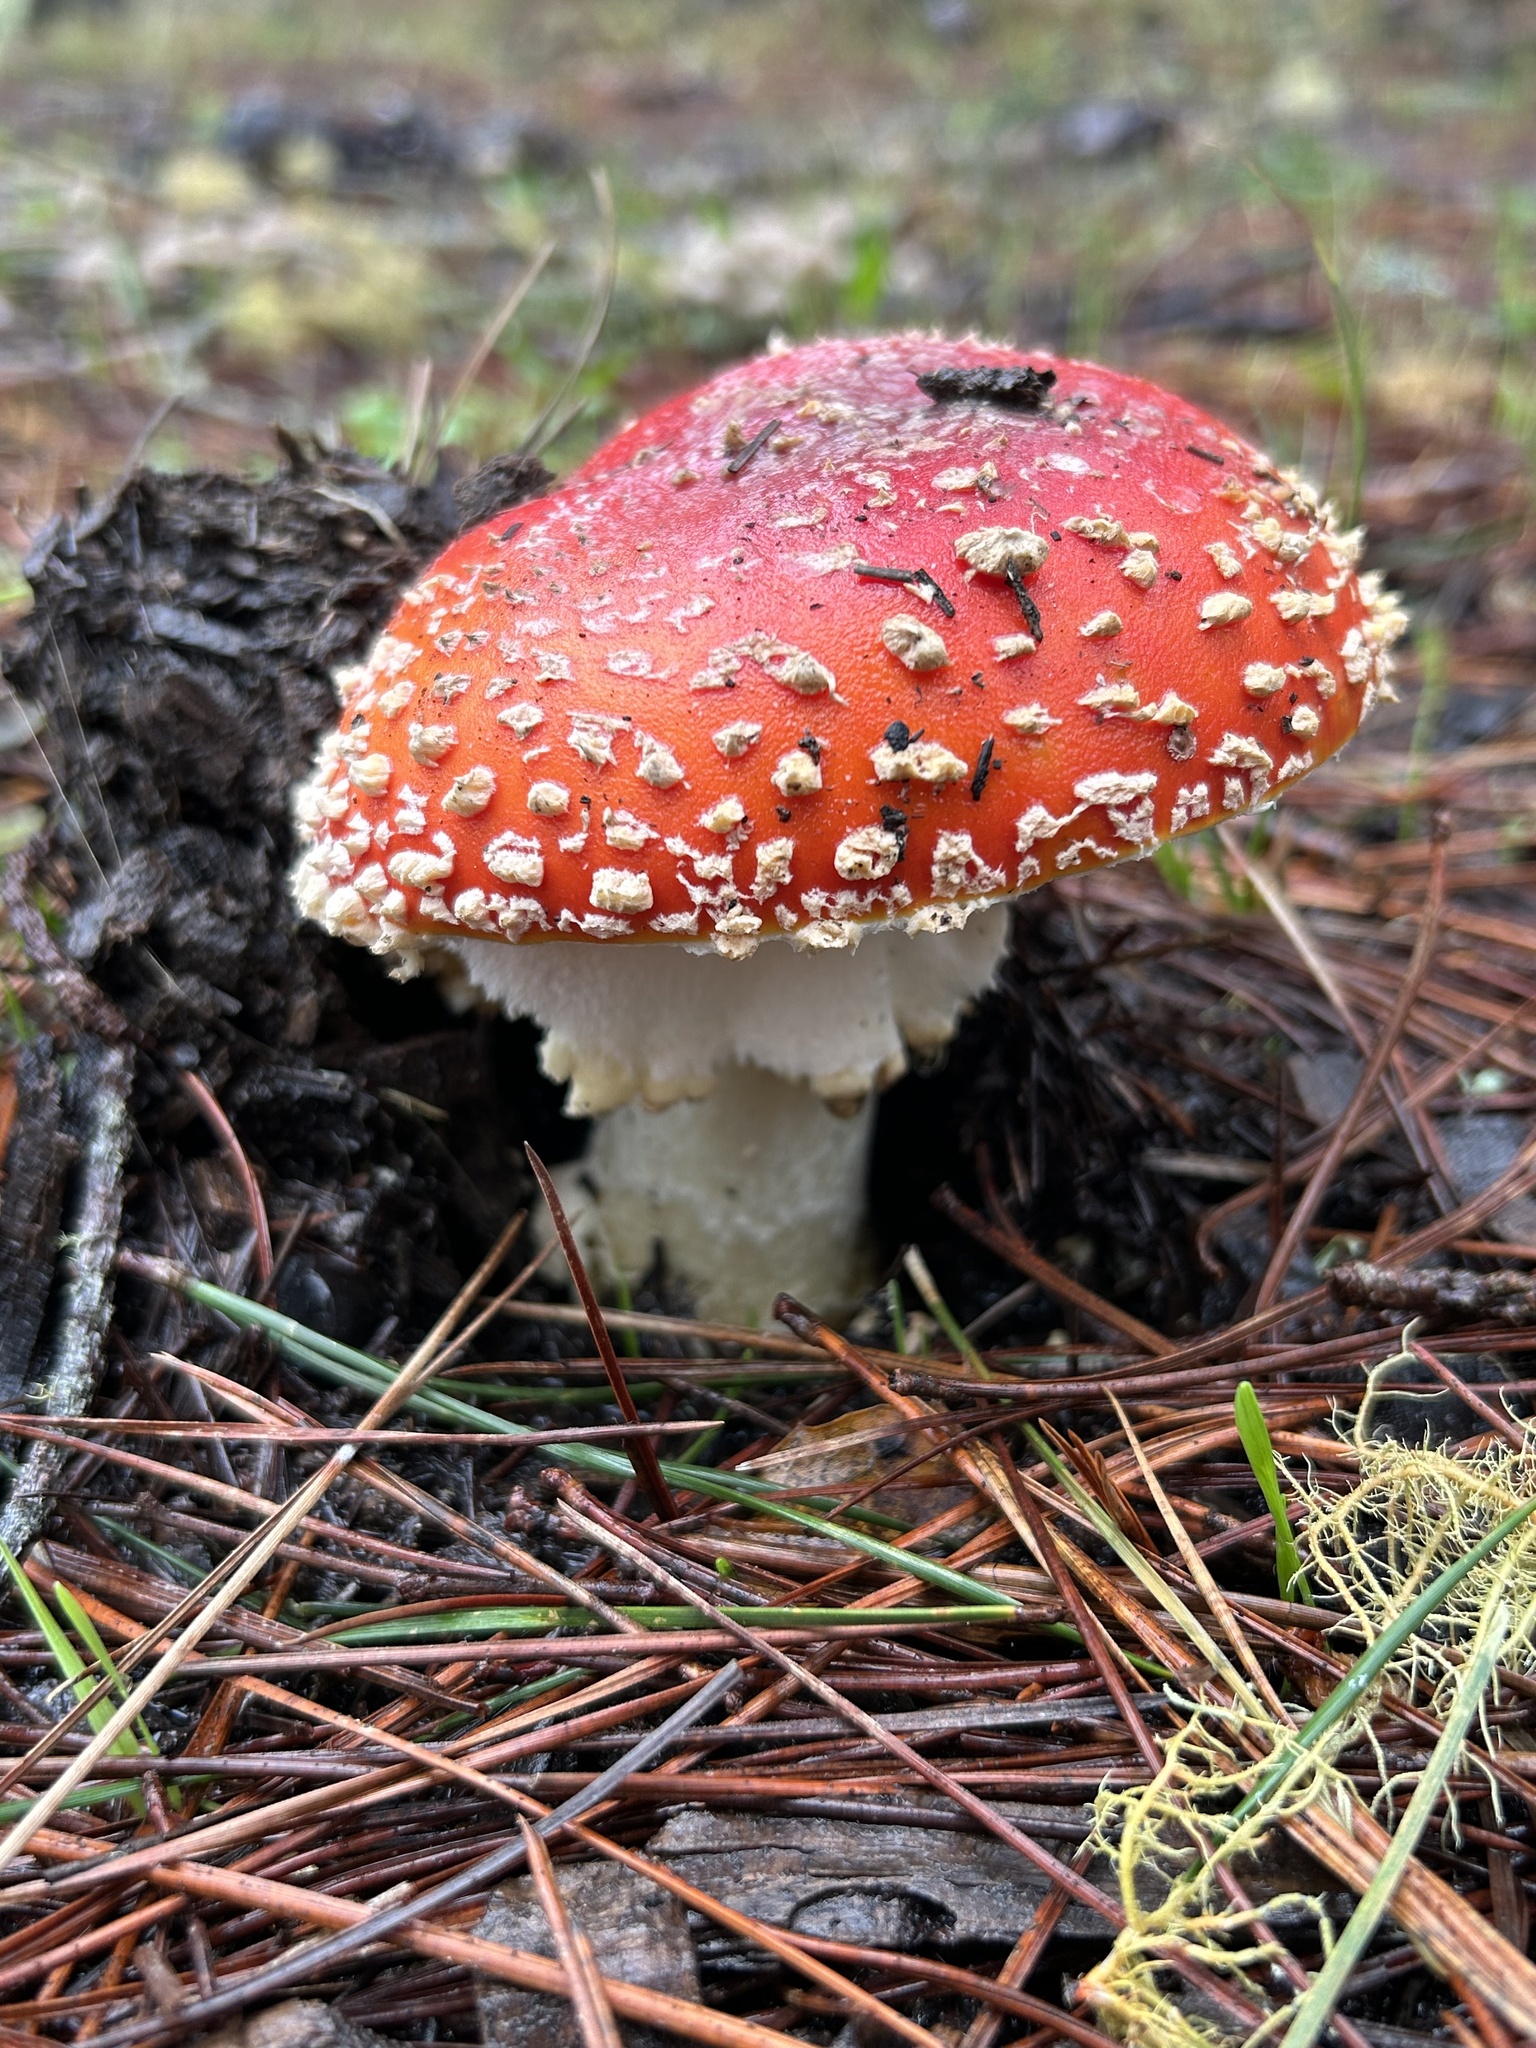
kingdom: Fungi
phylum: Basidiomycota
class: Agaricomycetes
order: Agaricales
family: Amanitaceae
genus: Amanita
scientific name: Amanita muscaria
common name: Fly agaric
